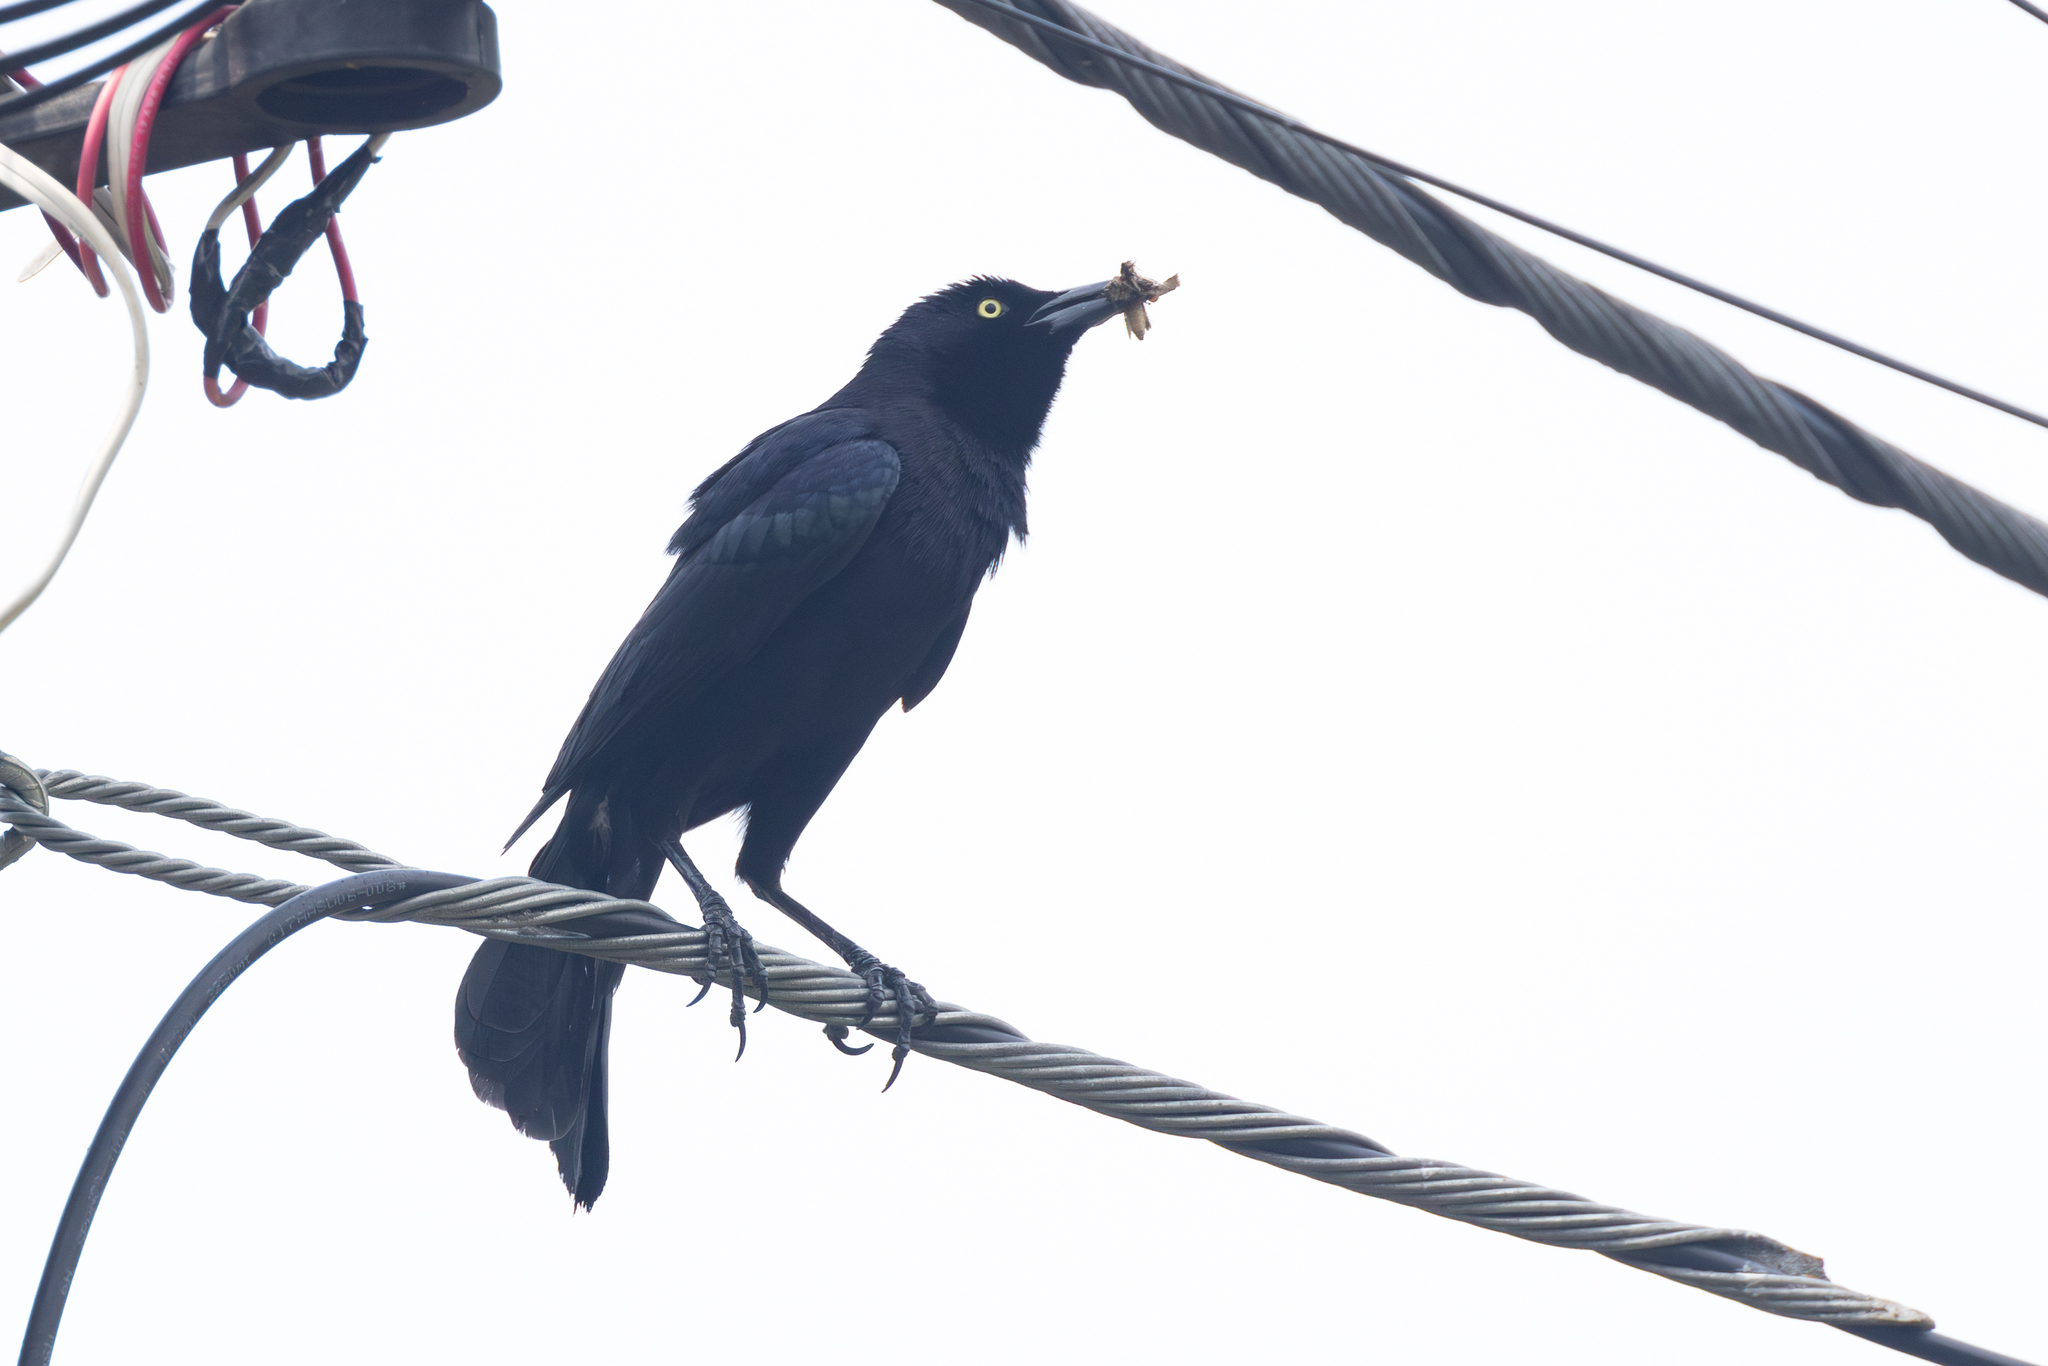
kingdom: Animalia
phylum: Chordata
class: Aves
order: Passeriformes
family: Icteridae
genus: Quiscalus
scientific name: Quiscalus lugubris
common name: Carib grackle
